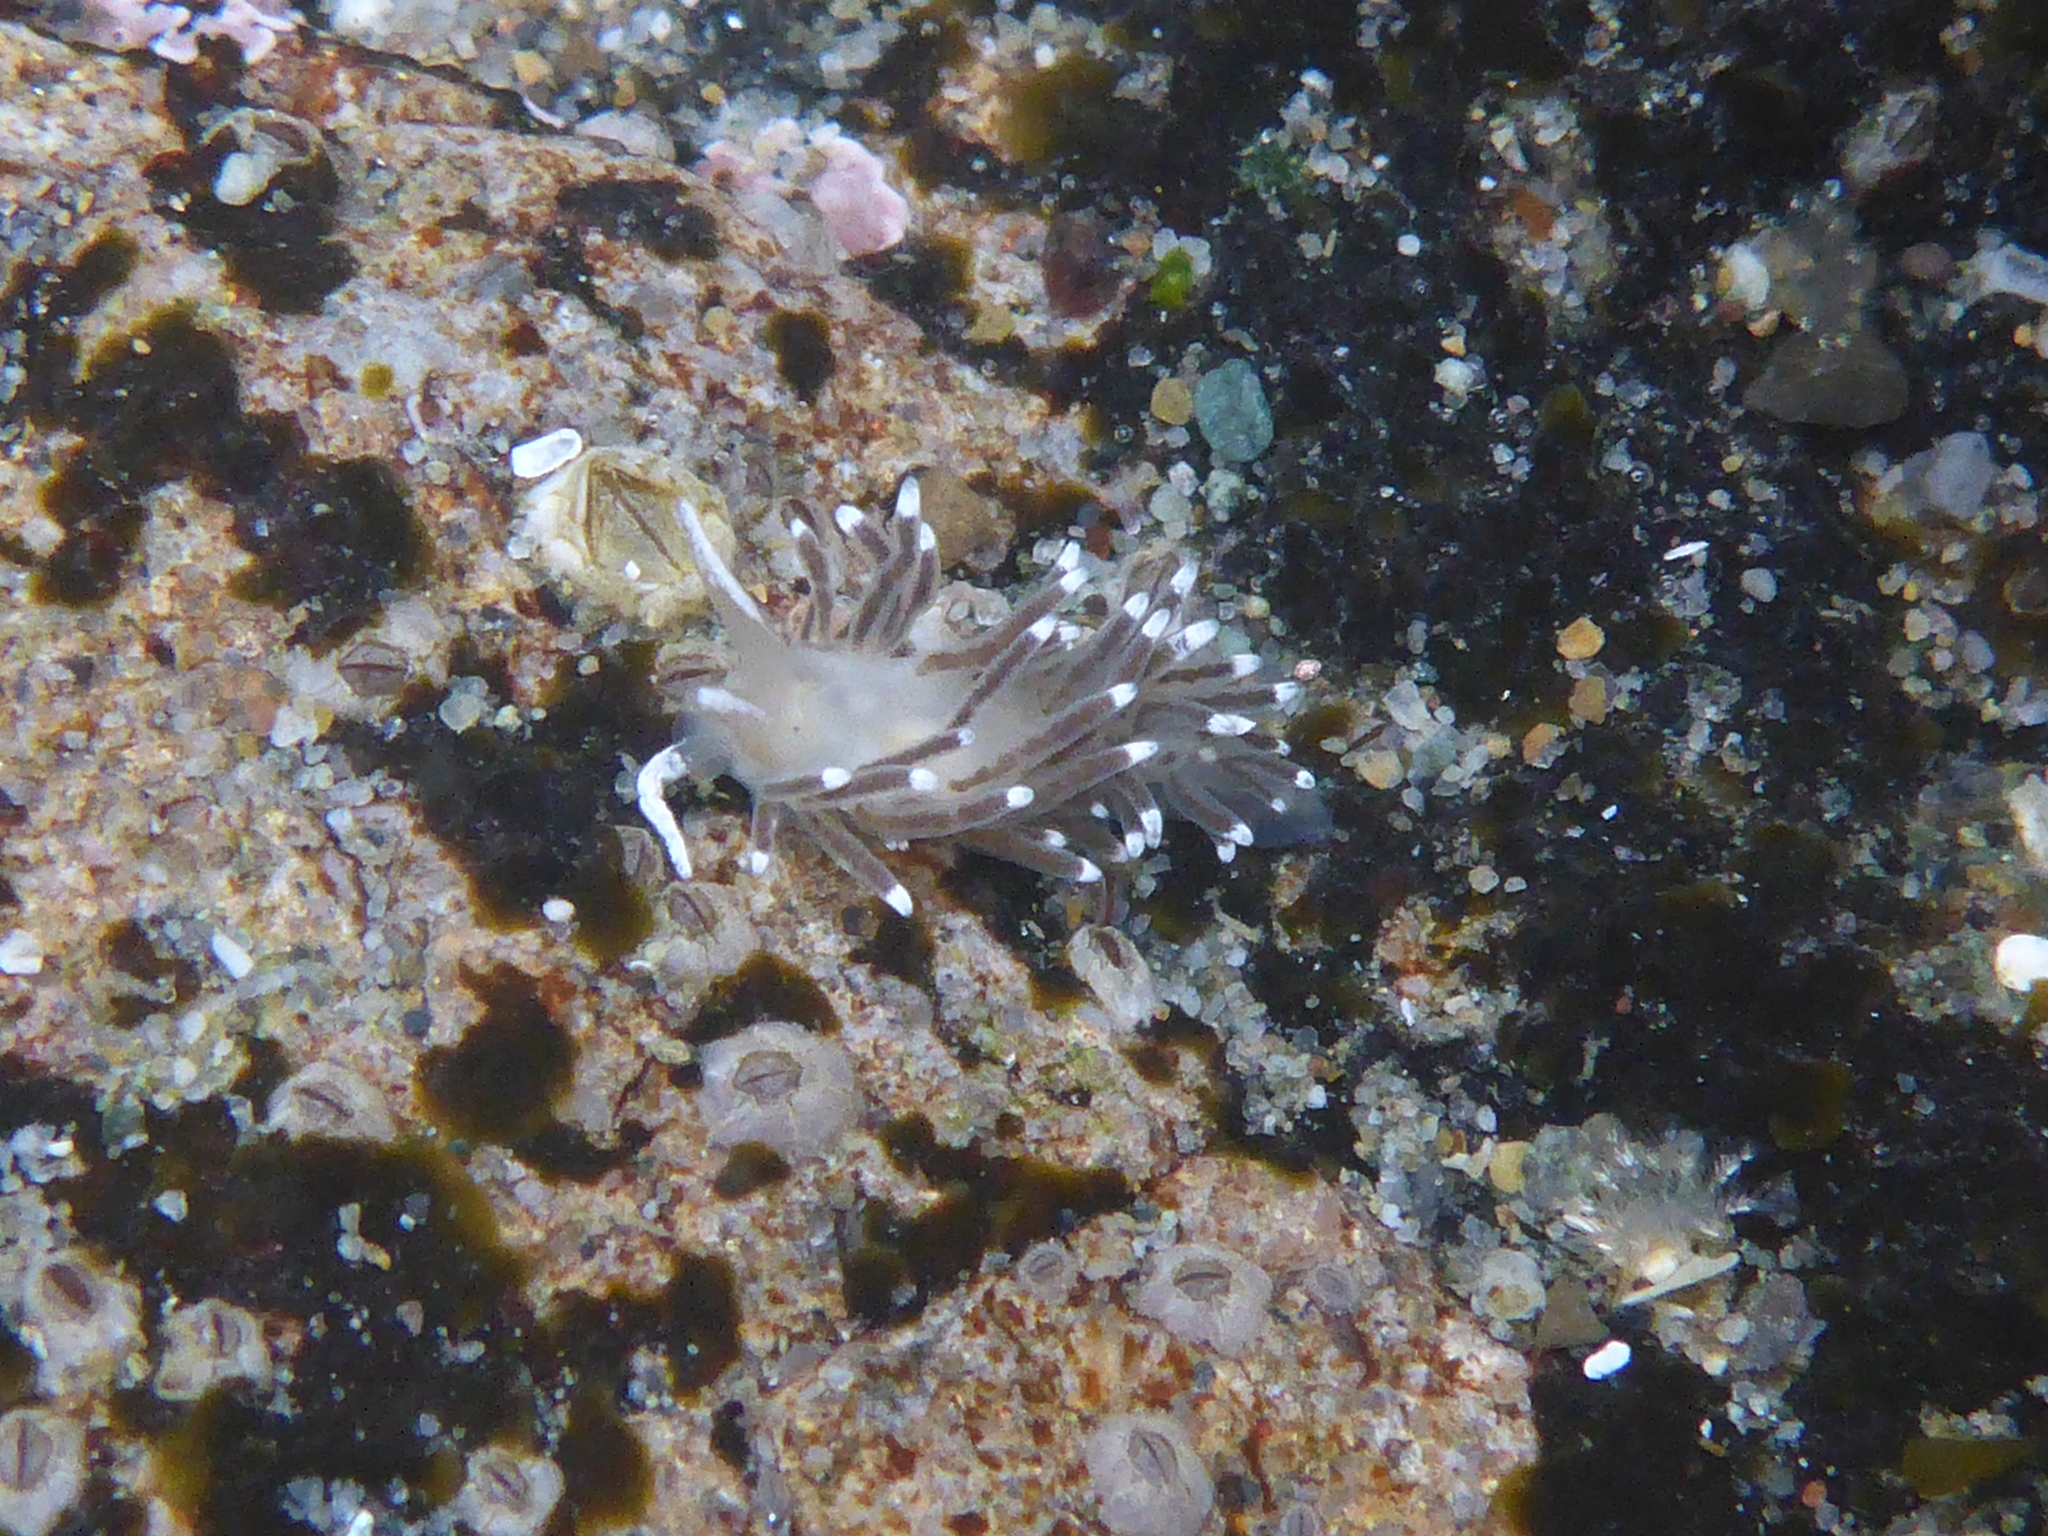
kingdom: Animalia
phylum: Mollusca
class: Gastropoda
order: Nudibranchia
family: Cuthonellidae
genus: Cuthonella
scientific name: Cuthonella cocoachroma
